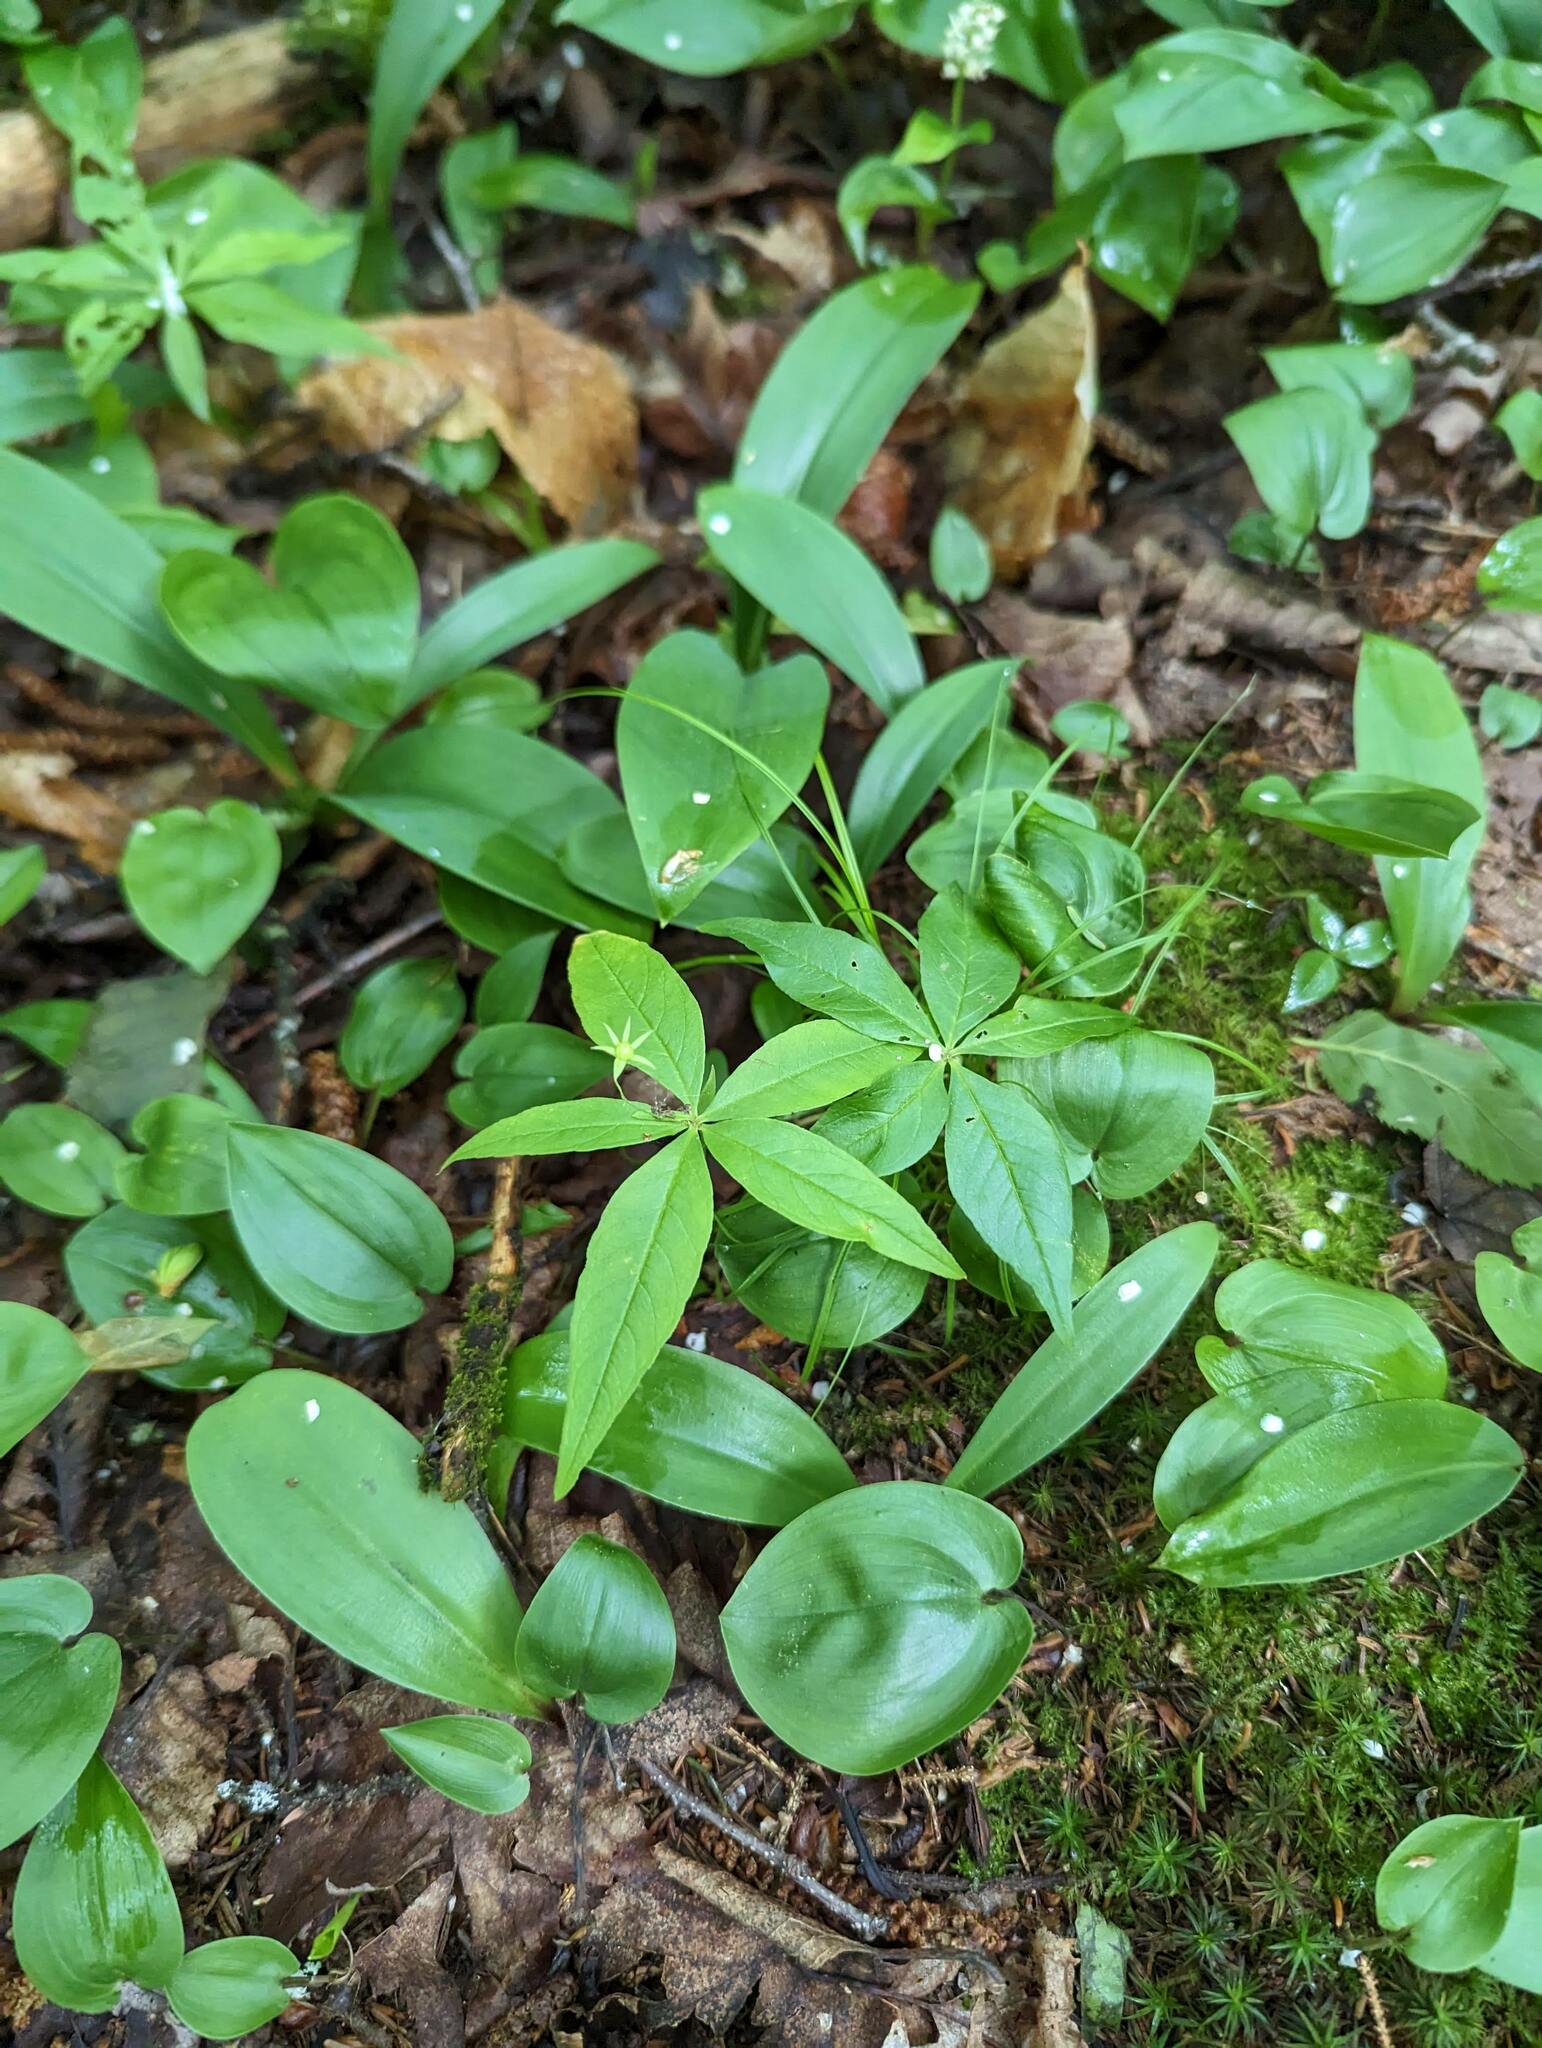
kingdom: Plantae
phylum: Tracheophyta
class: Magnoliopsida
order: Ericales
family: Primulaceae
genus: Lysimachia
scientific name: Lysimachia borealis
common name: American starflower
